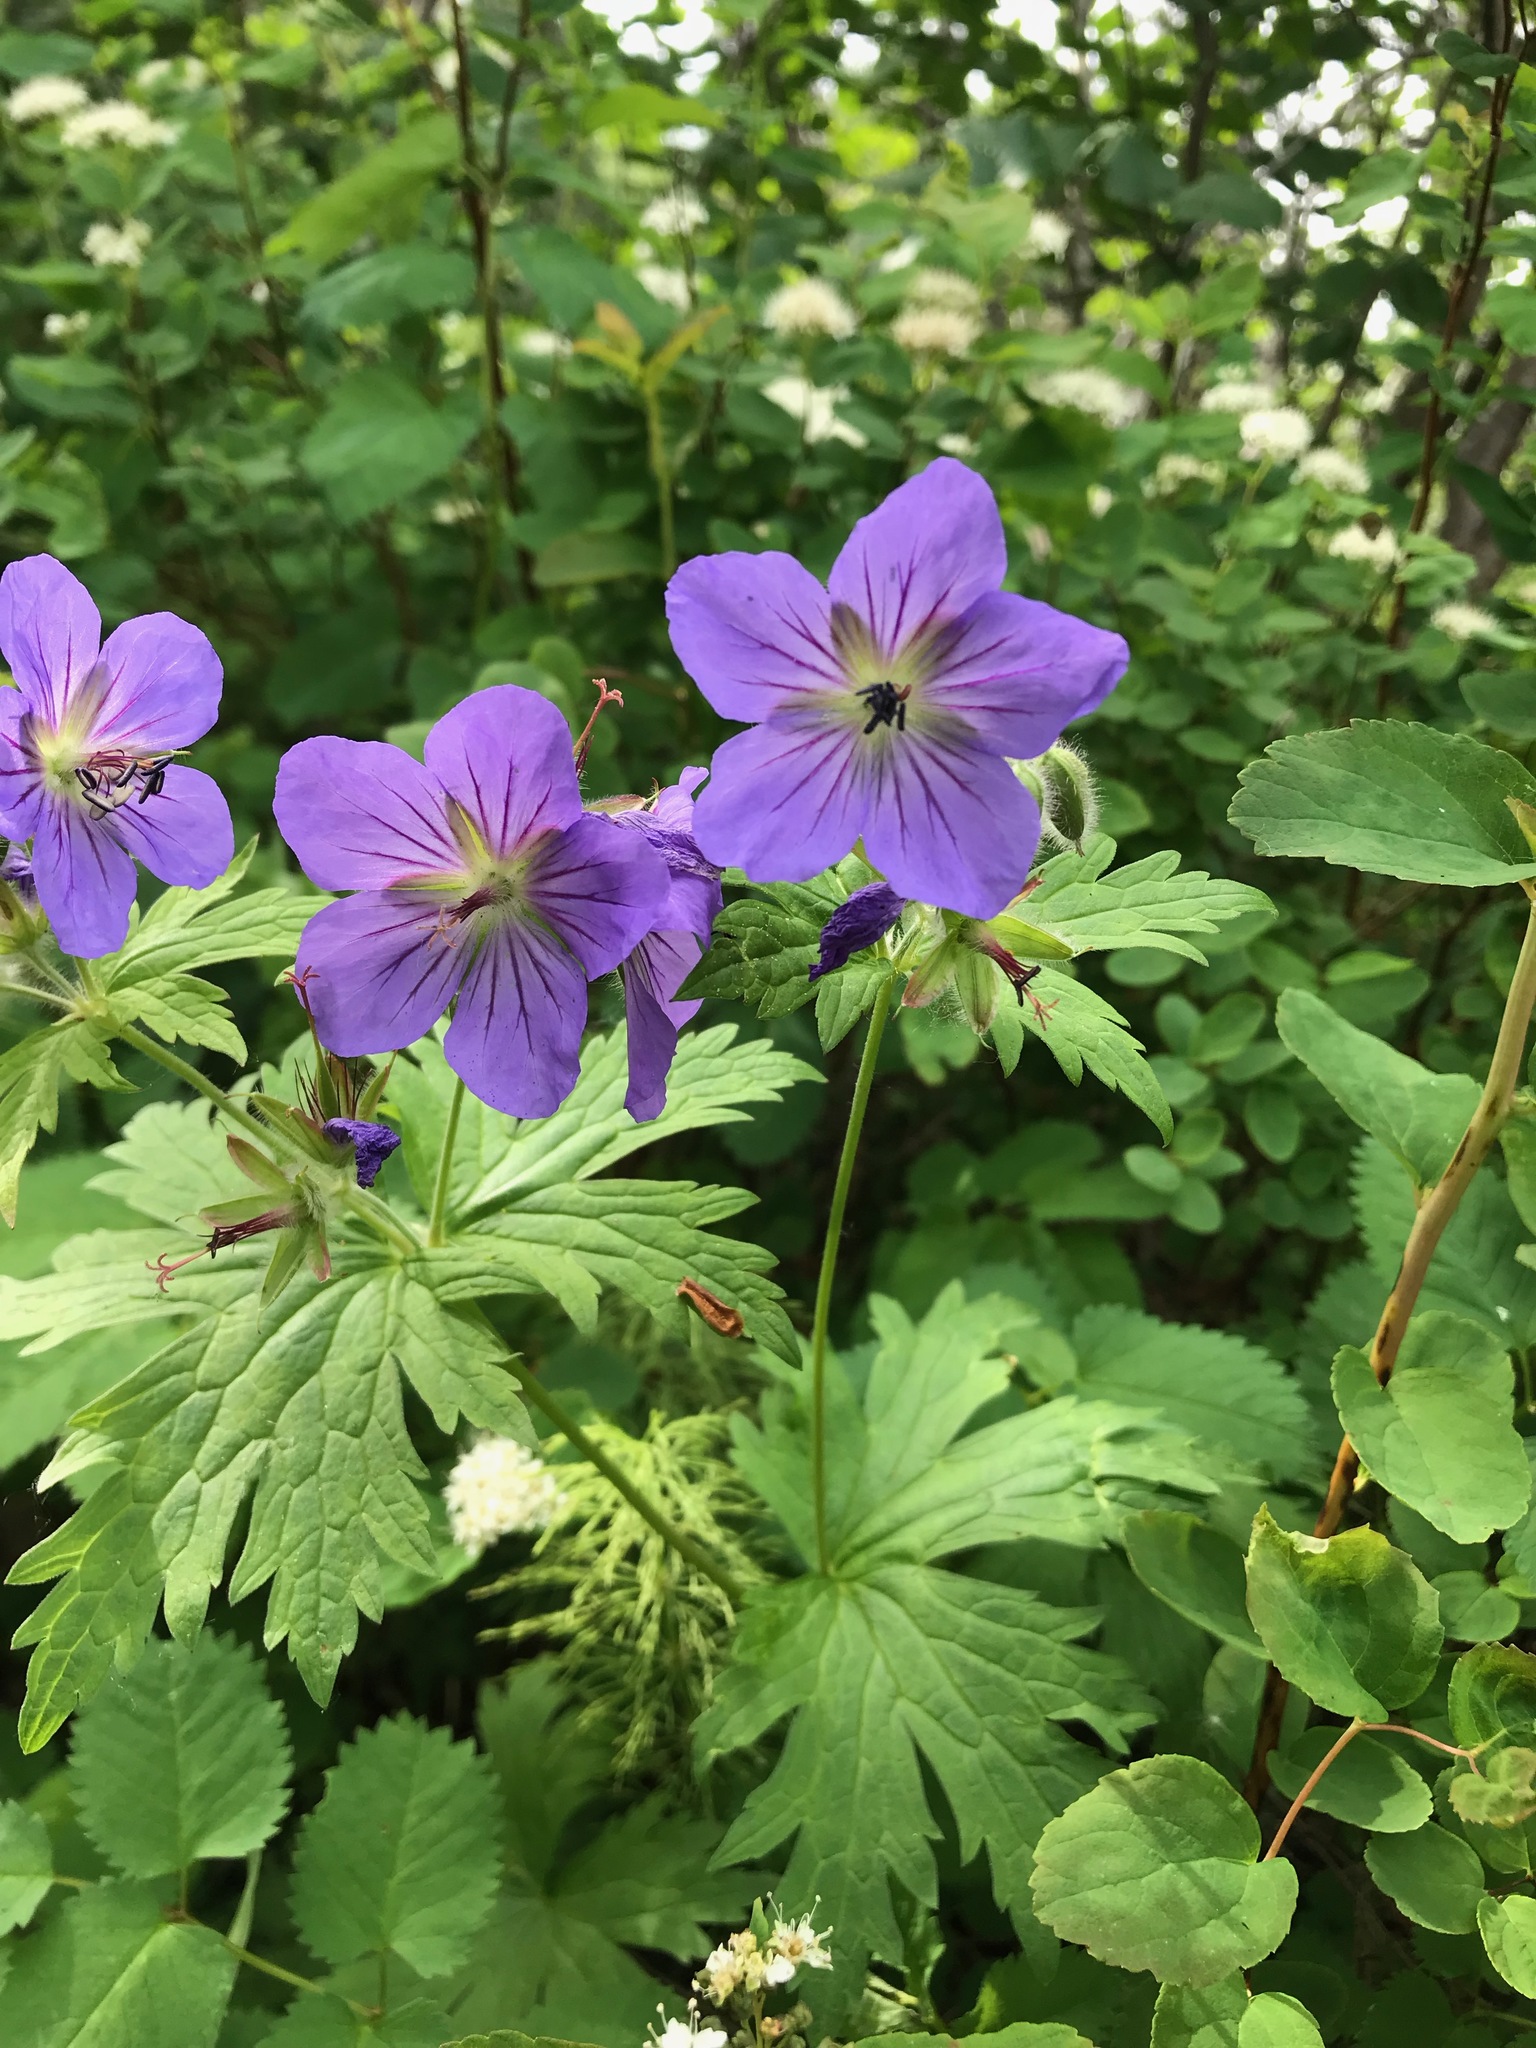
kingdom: Plantae
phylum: Tracheophyta
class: Magnoliopsida
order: Geraniales
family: Geraniaceae
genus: Geranium
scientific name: Geranium erianthum
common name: Northern crane's-bill
